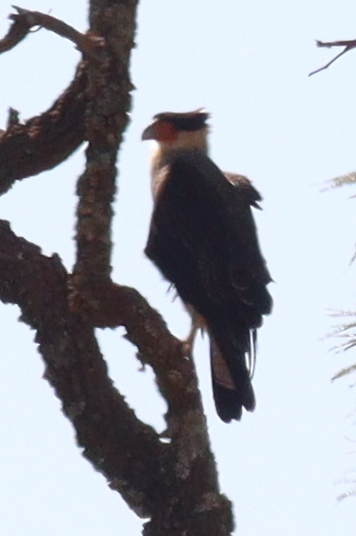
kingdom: Animalia
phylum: Chordata
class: Aves
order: Falconiformes
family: Falconidae
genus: Caracara
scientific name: Caracara plancus
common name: Southern caracara
